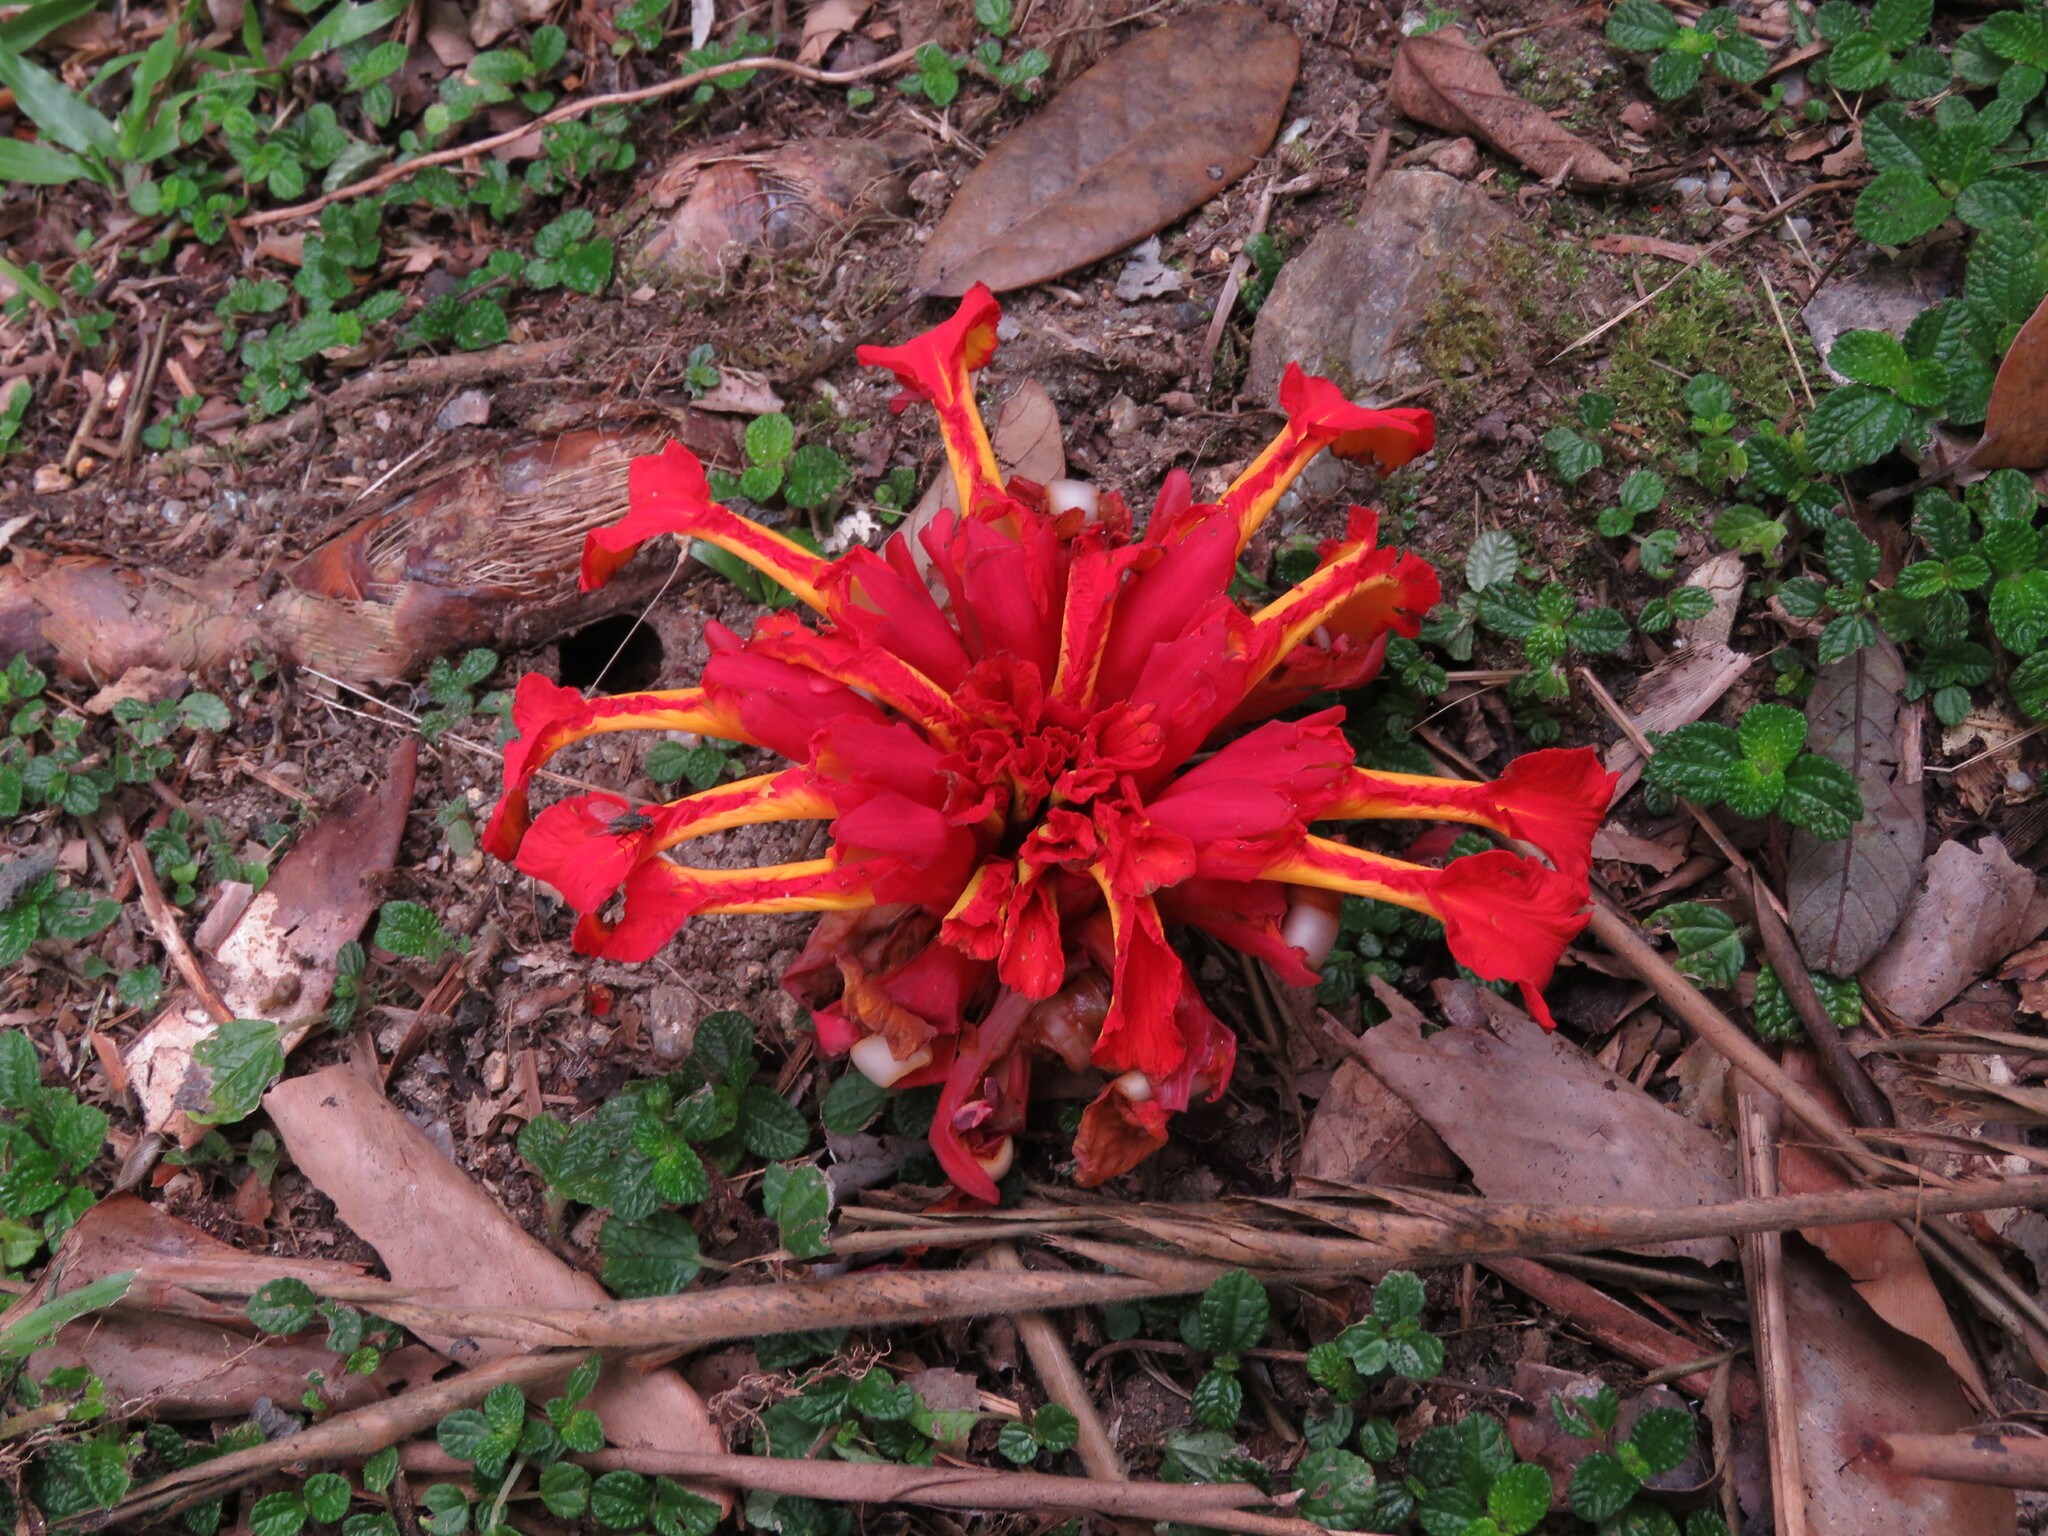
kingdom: Plantae
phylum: Tracheophyta
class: Liliopsida
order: Zingiberales
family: Zingiberaceae
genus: Etlingera
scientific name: Etlingera coccinea
